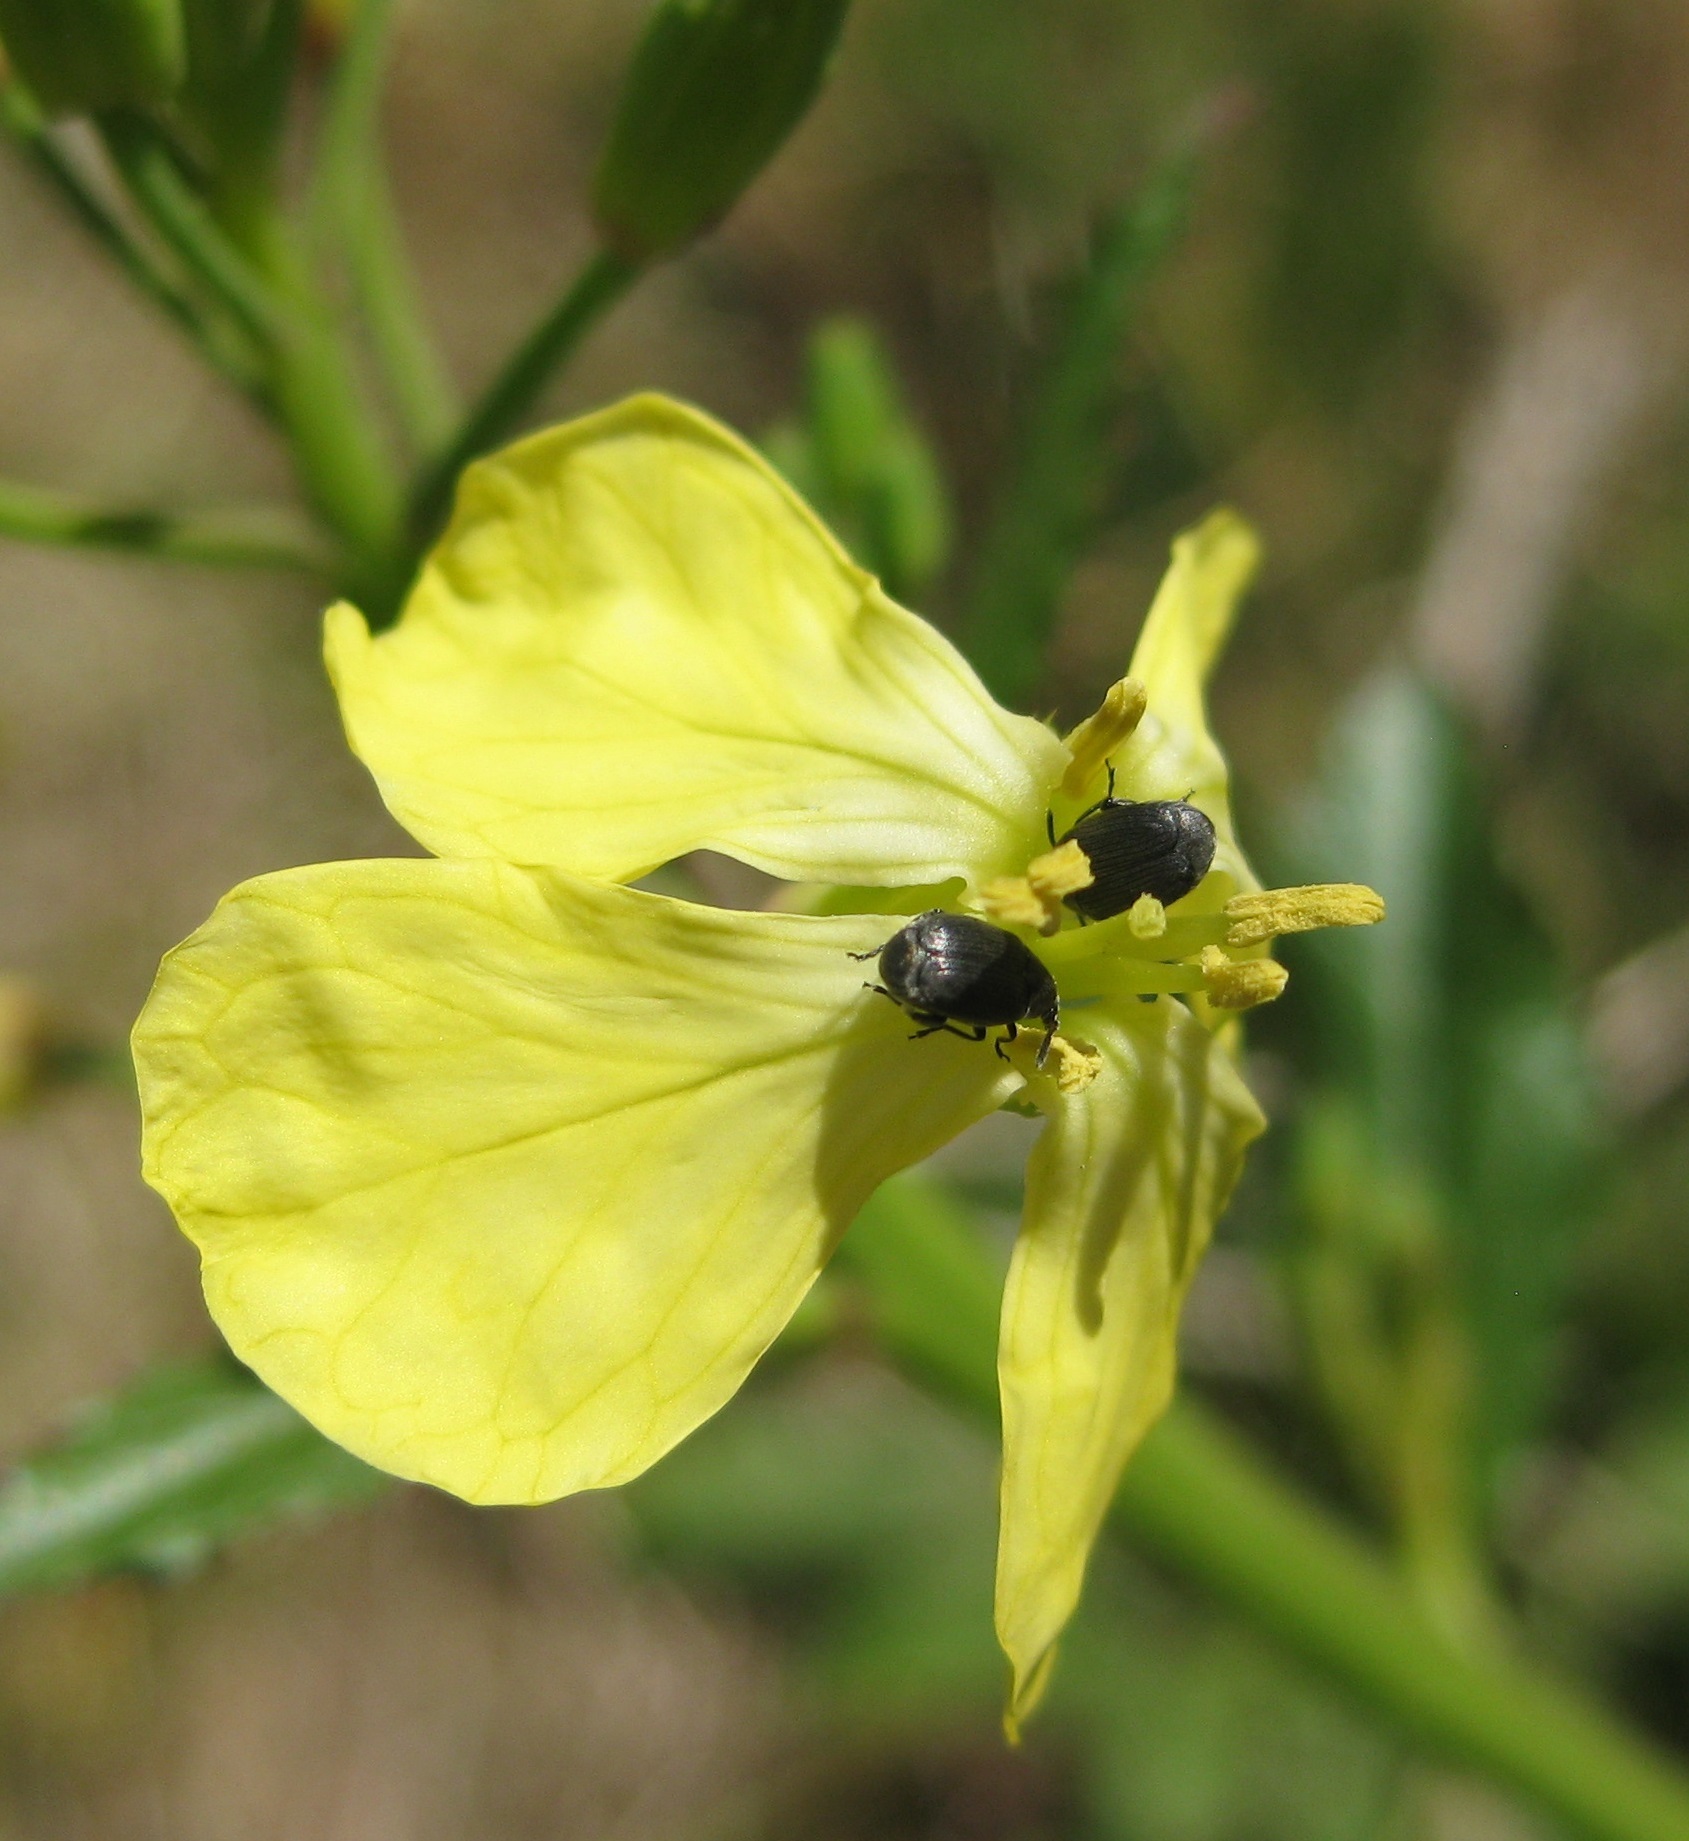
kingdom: Animalia
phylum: Arthropoda
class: Insecta
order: Coleoptera
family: Chrysomelidae
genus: Bruchidius
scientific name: Bruchidius villosus
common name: Scotch broom bruchid
